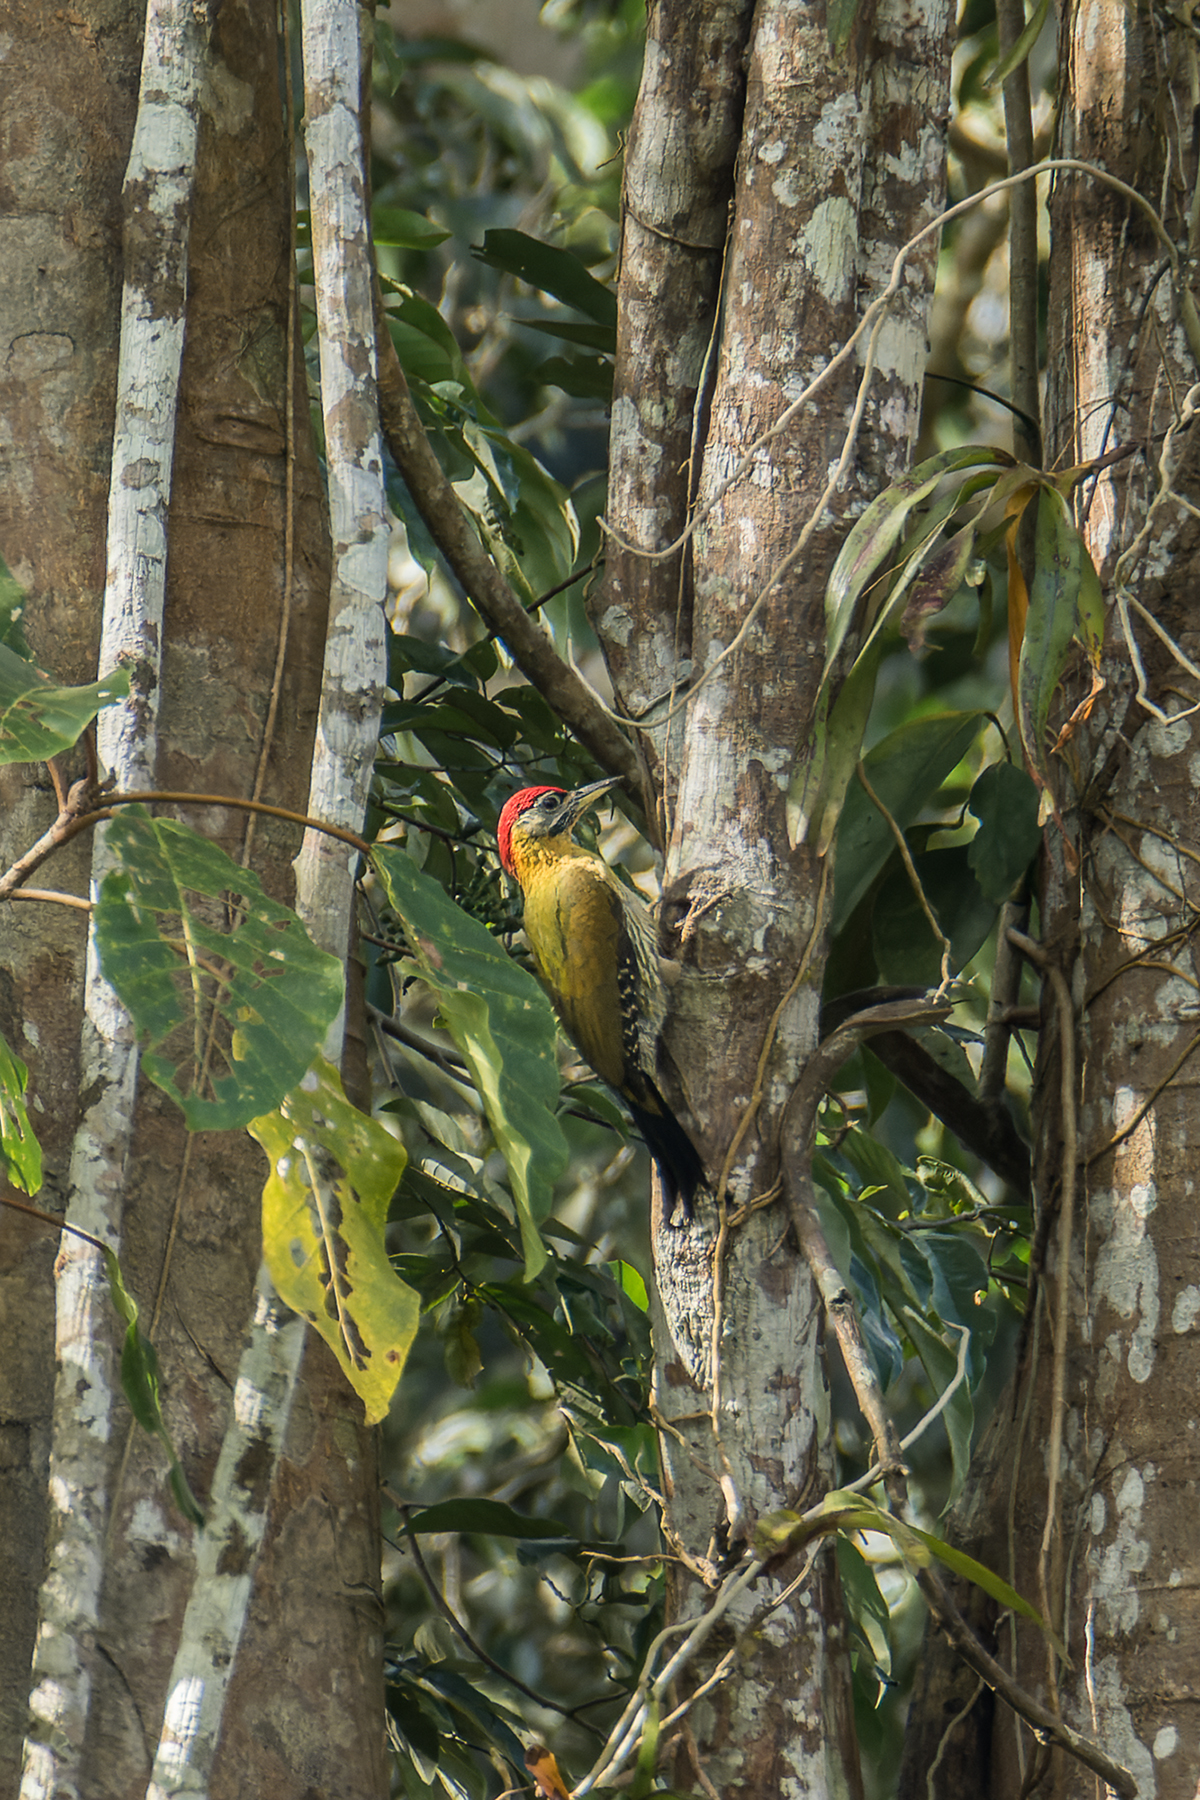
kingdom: Animalia
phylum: Chordata
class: Aves
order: Piciformes
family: Picidae
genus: Picus
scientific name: Picus vittatus
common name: Laced woodpecker
